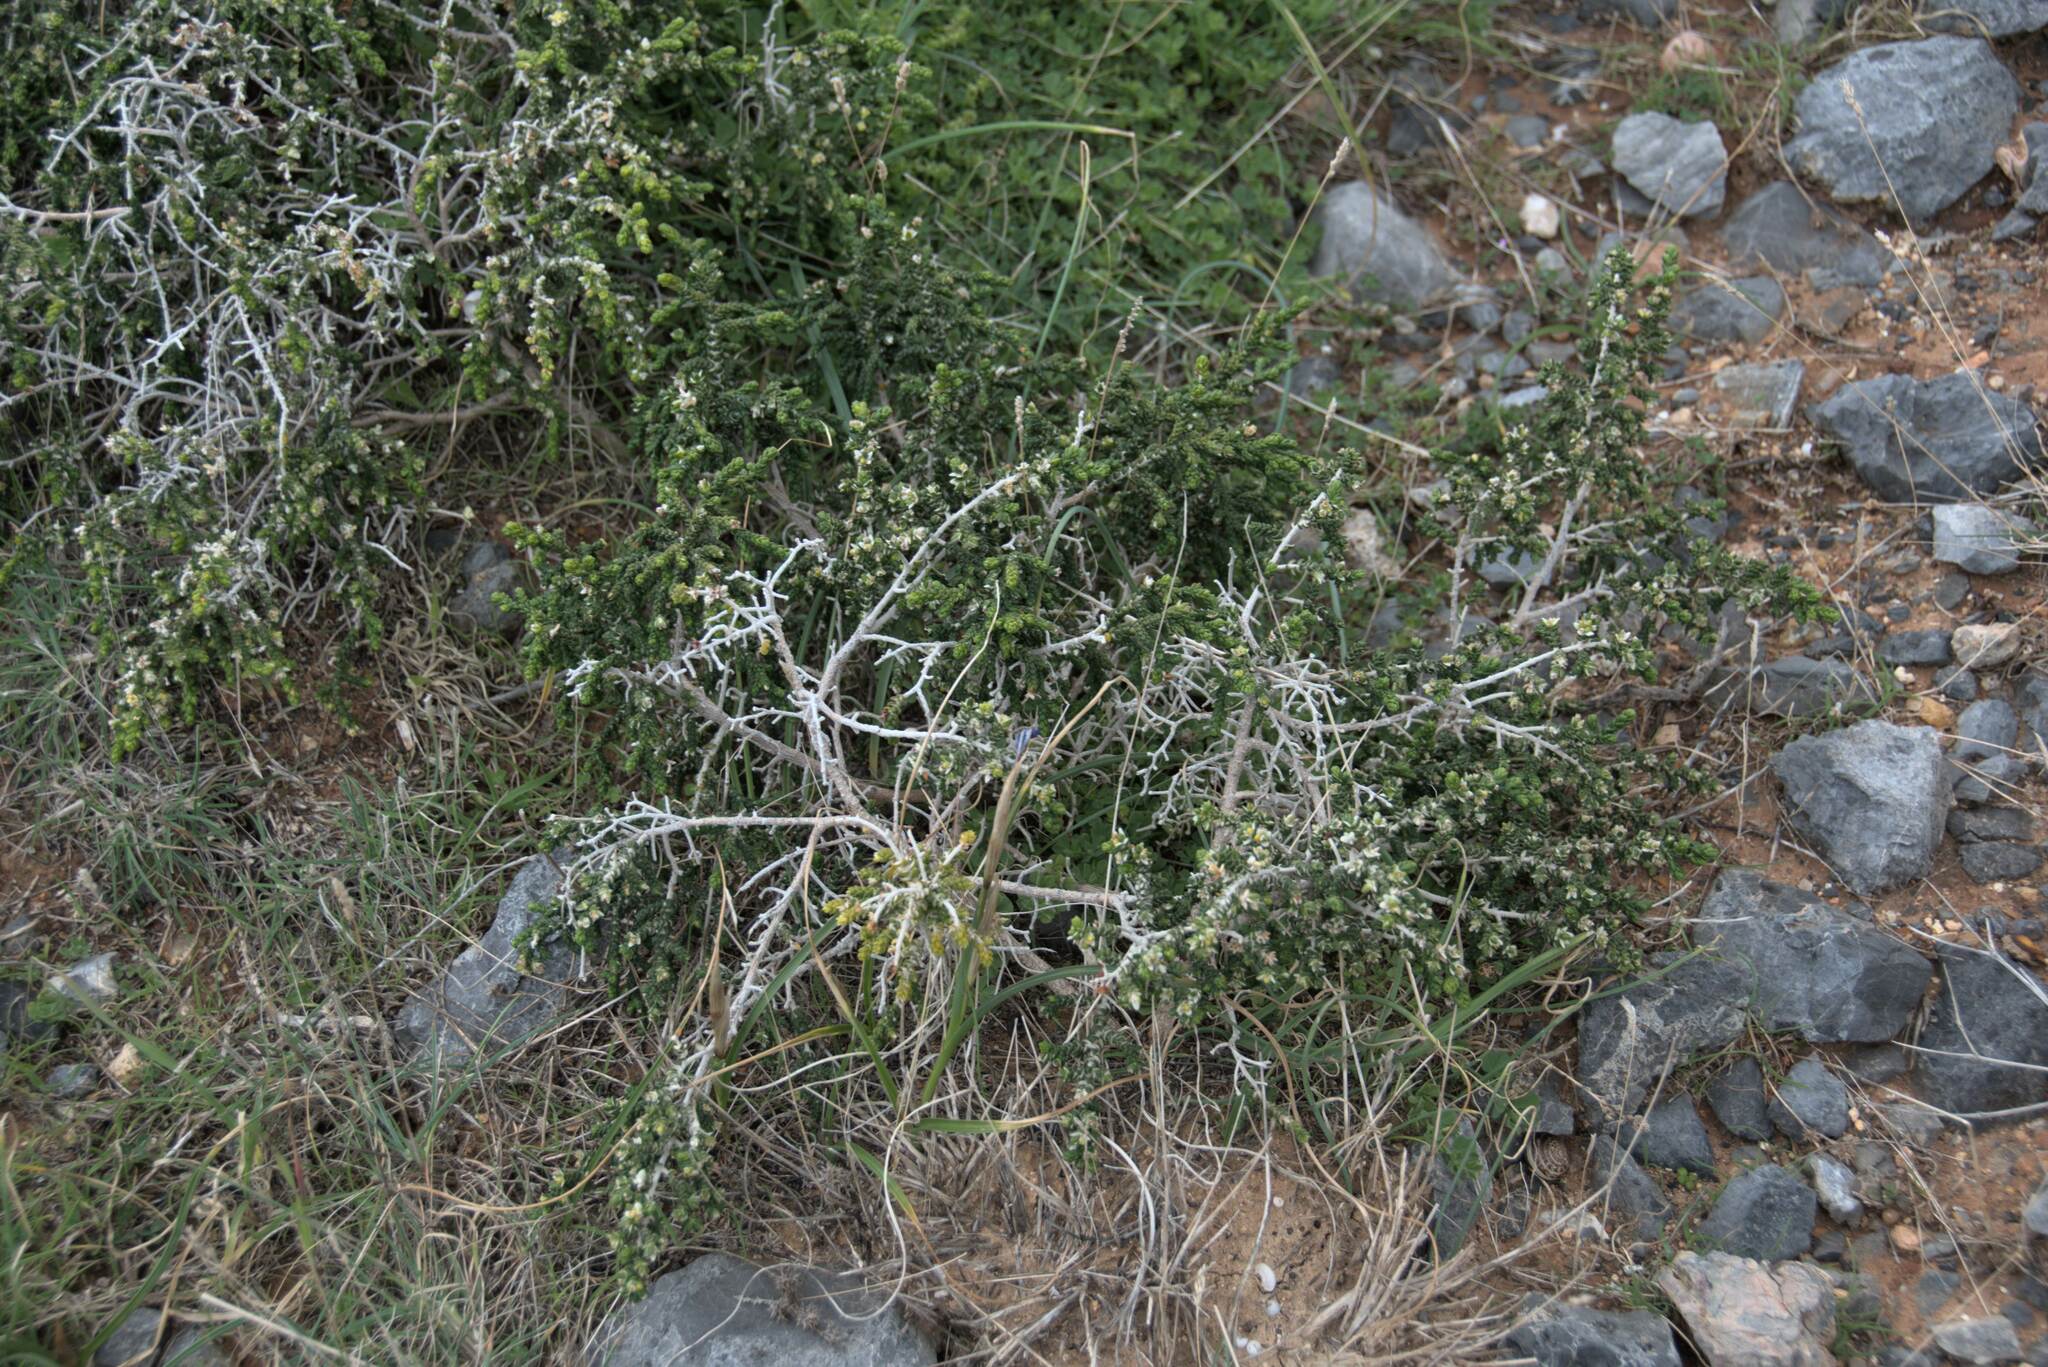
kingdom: Plantae
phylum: Tracheophyta
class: Magnoliopsida
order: Malvales
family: Thymelaeaceae
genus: Thymelaea
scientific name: Thymelaea hirsuta
